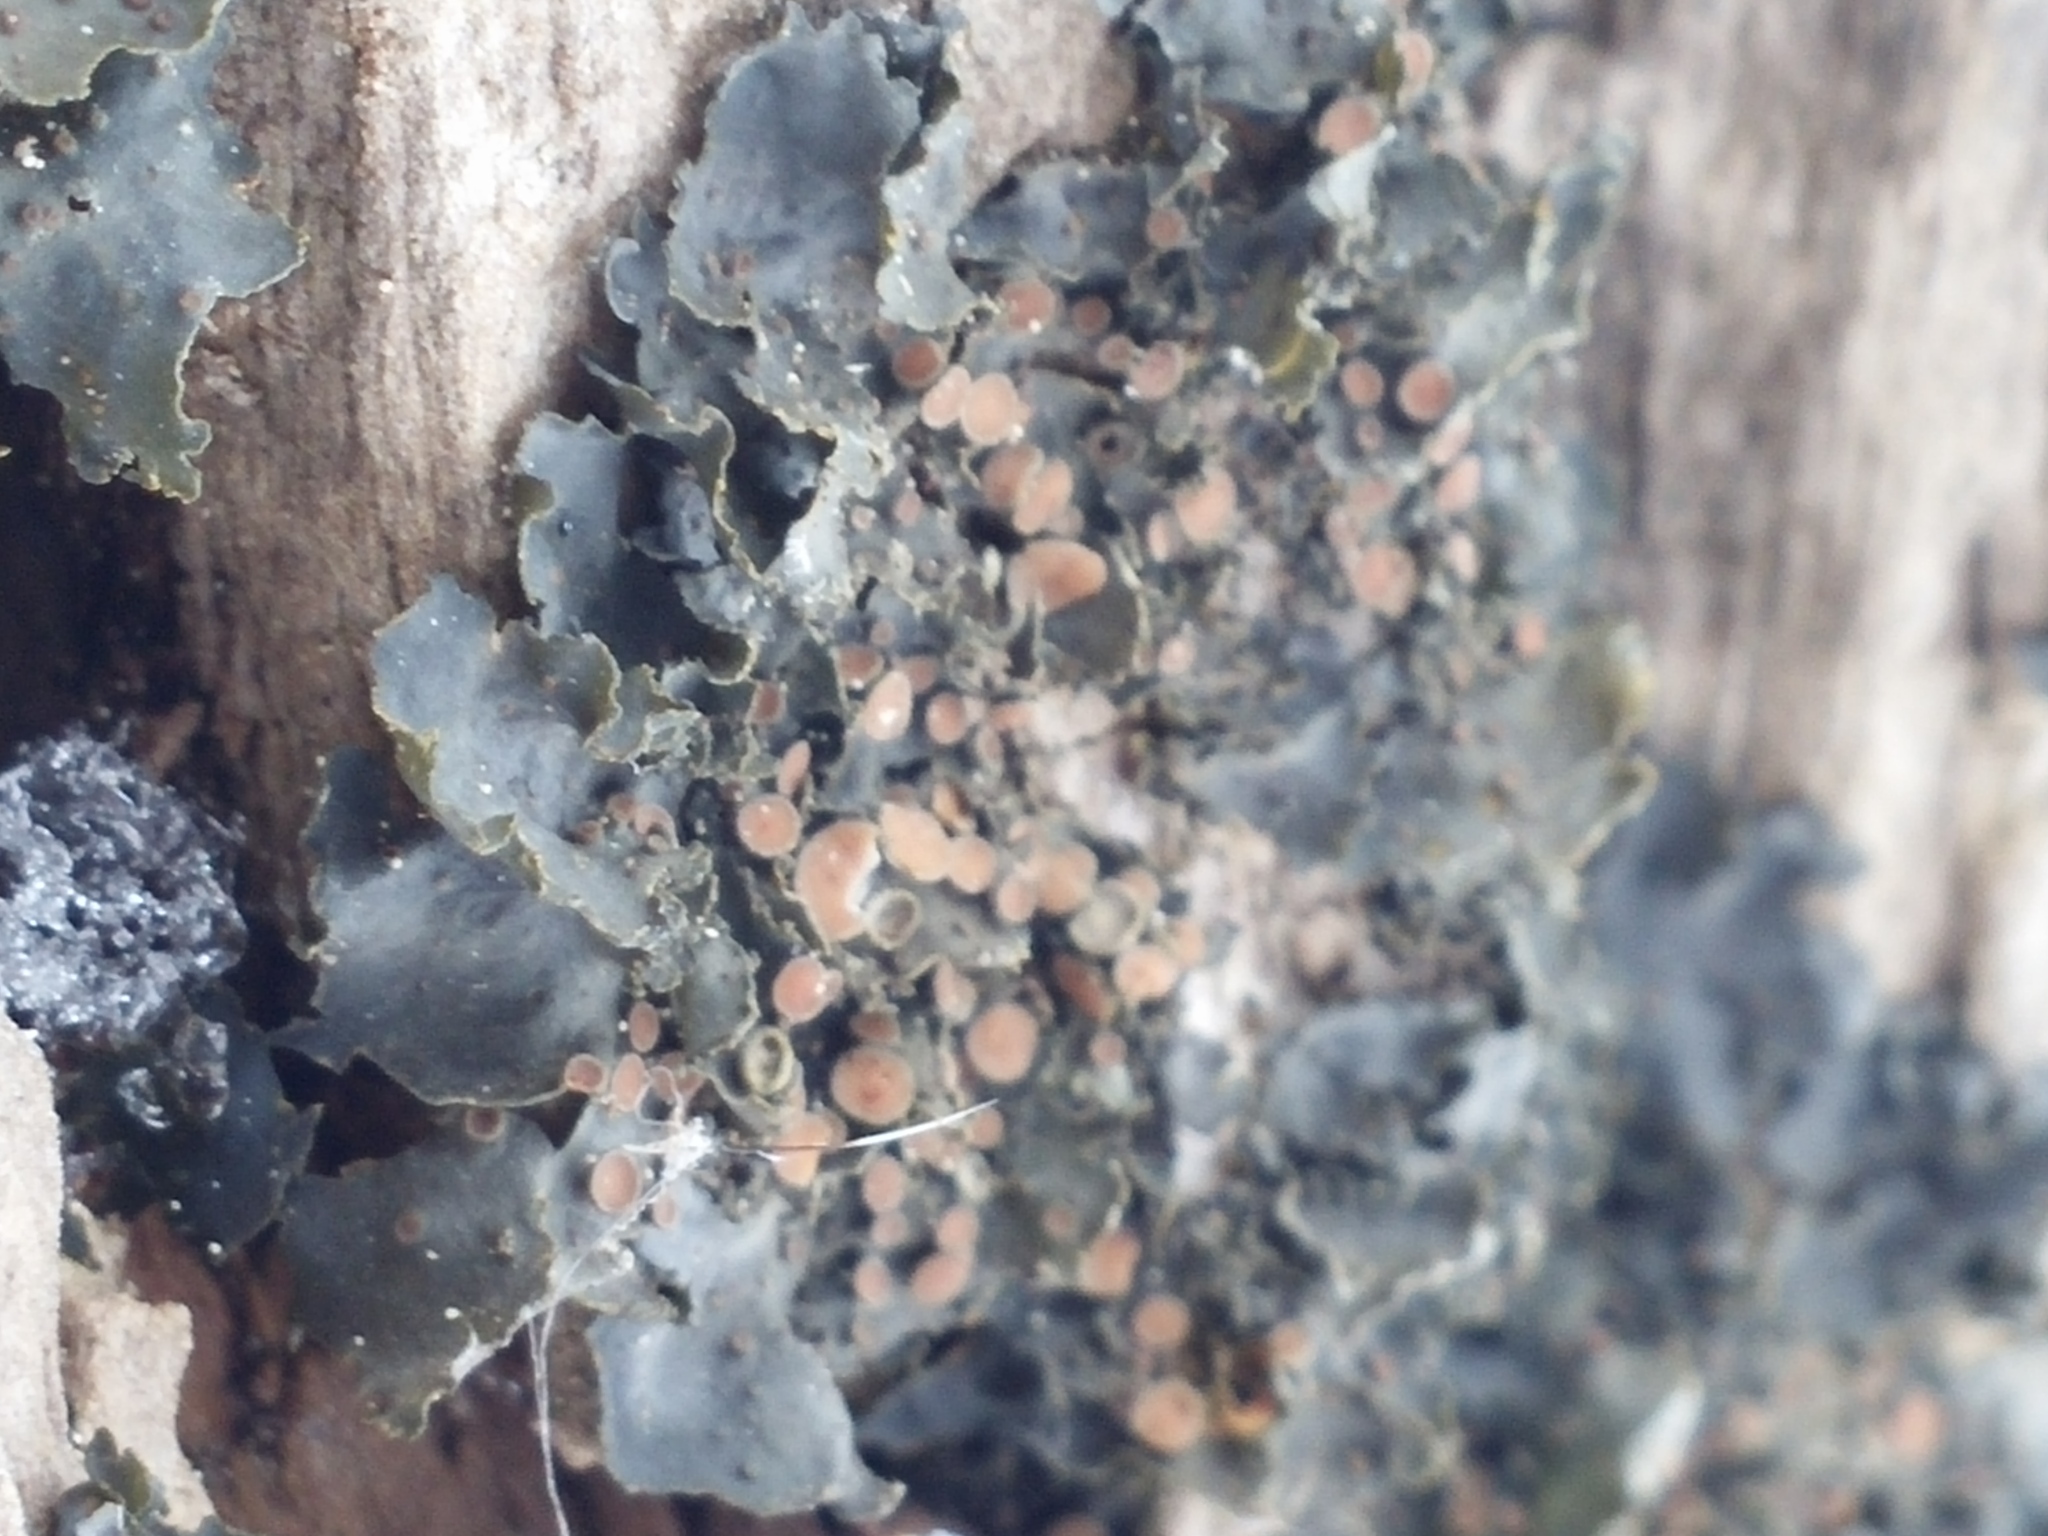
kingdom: Fungi
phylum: Ascomycota
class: Lecanoromycetes
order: Peltigerales
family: Collemataceae
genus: Leptogium
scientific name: Leptogium rivulare
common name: Flooded jellyskin lichen
